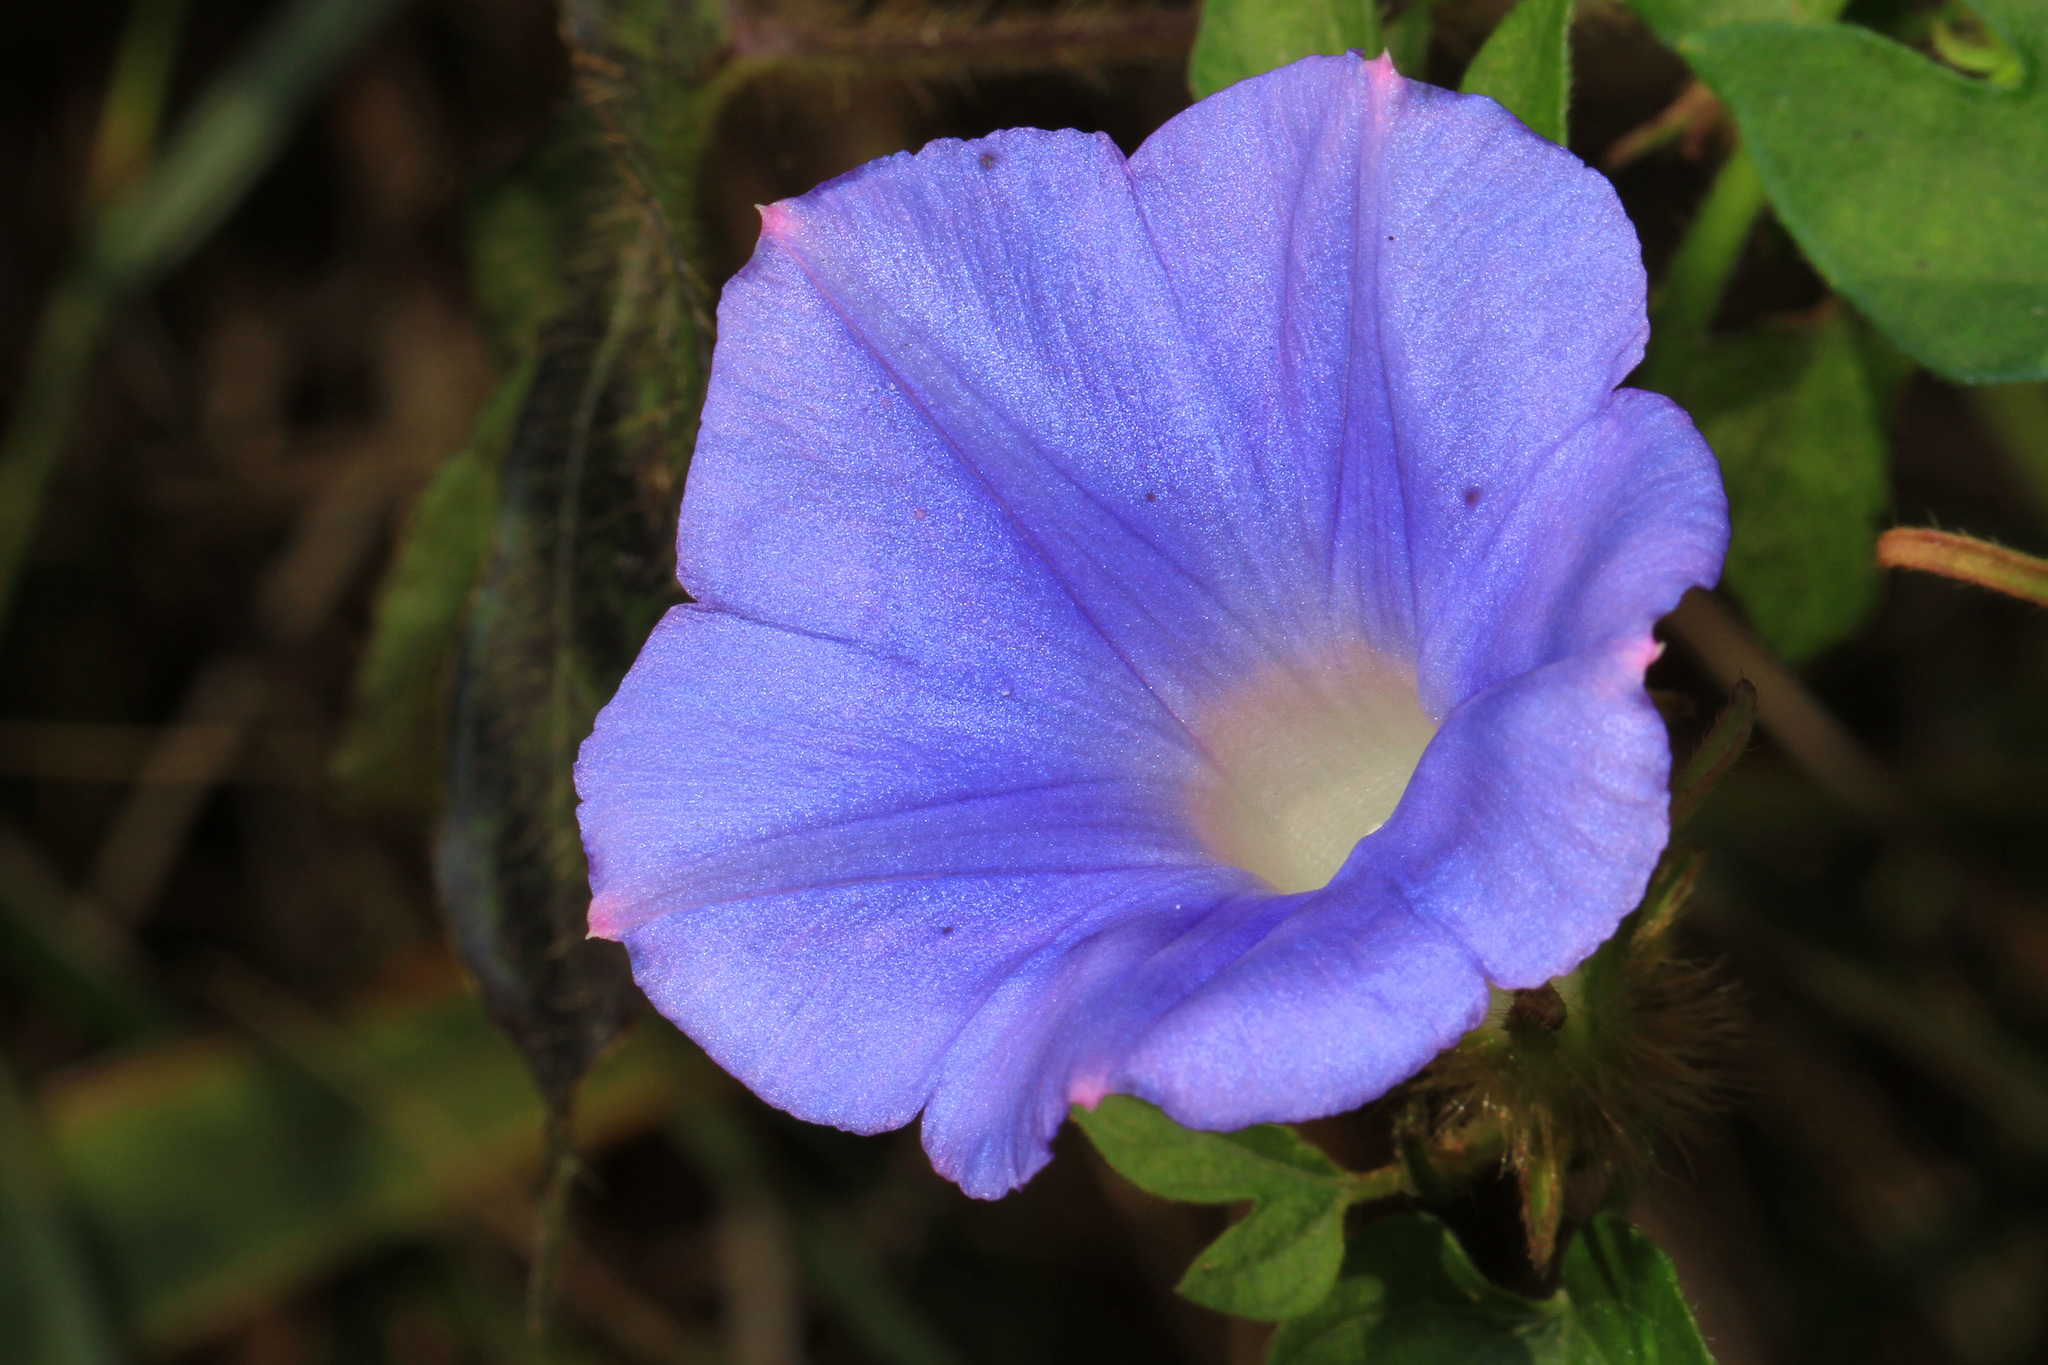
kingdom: Plantae
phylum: Tracheophyta
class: Magnoliopsida
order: Solanales
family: Convolvulaceae
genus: Ipomoea
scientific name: Ipomoea hederacea
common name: Ivy-leaved morning-glory
